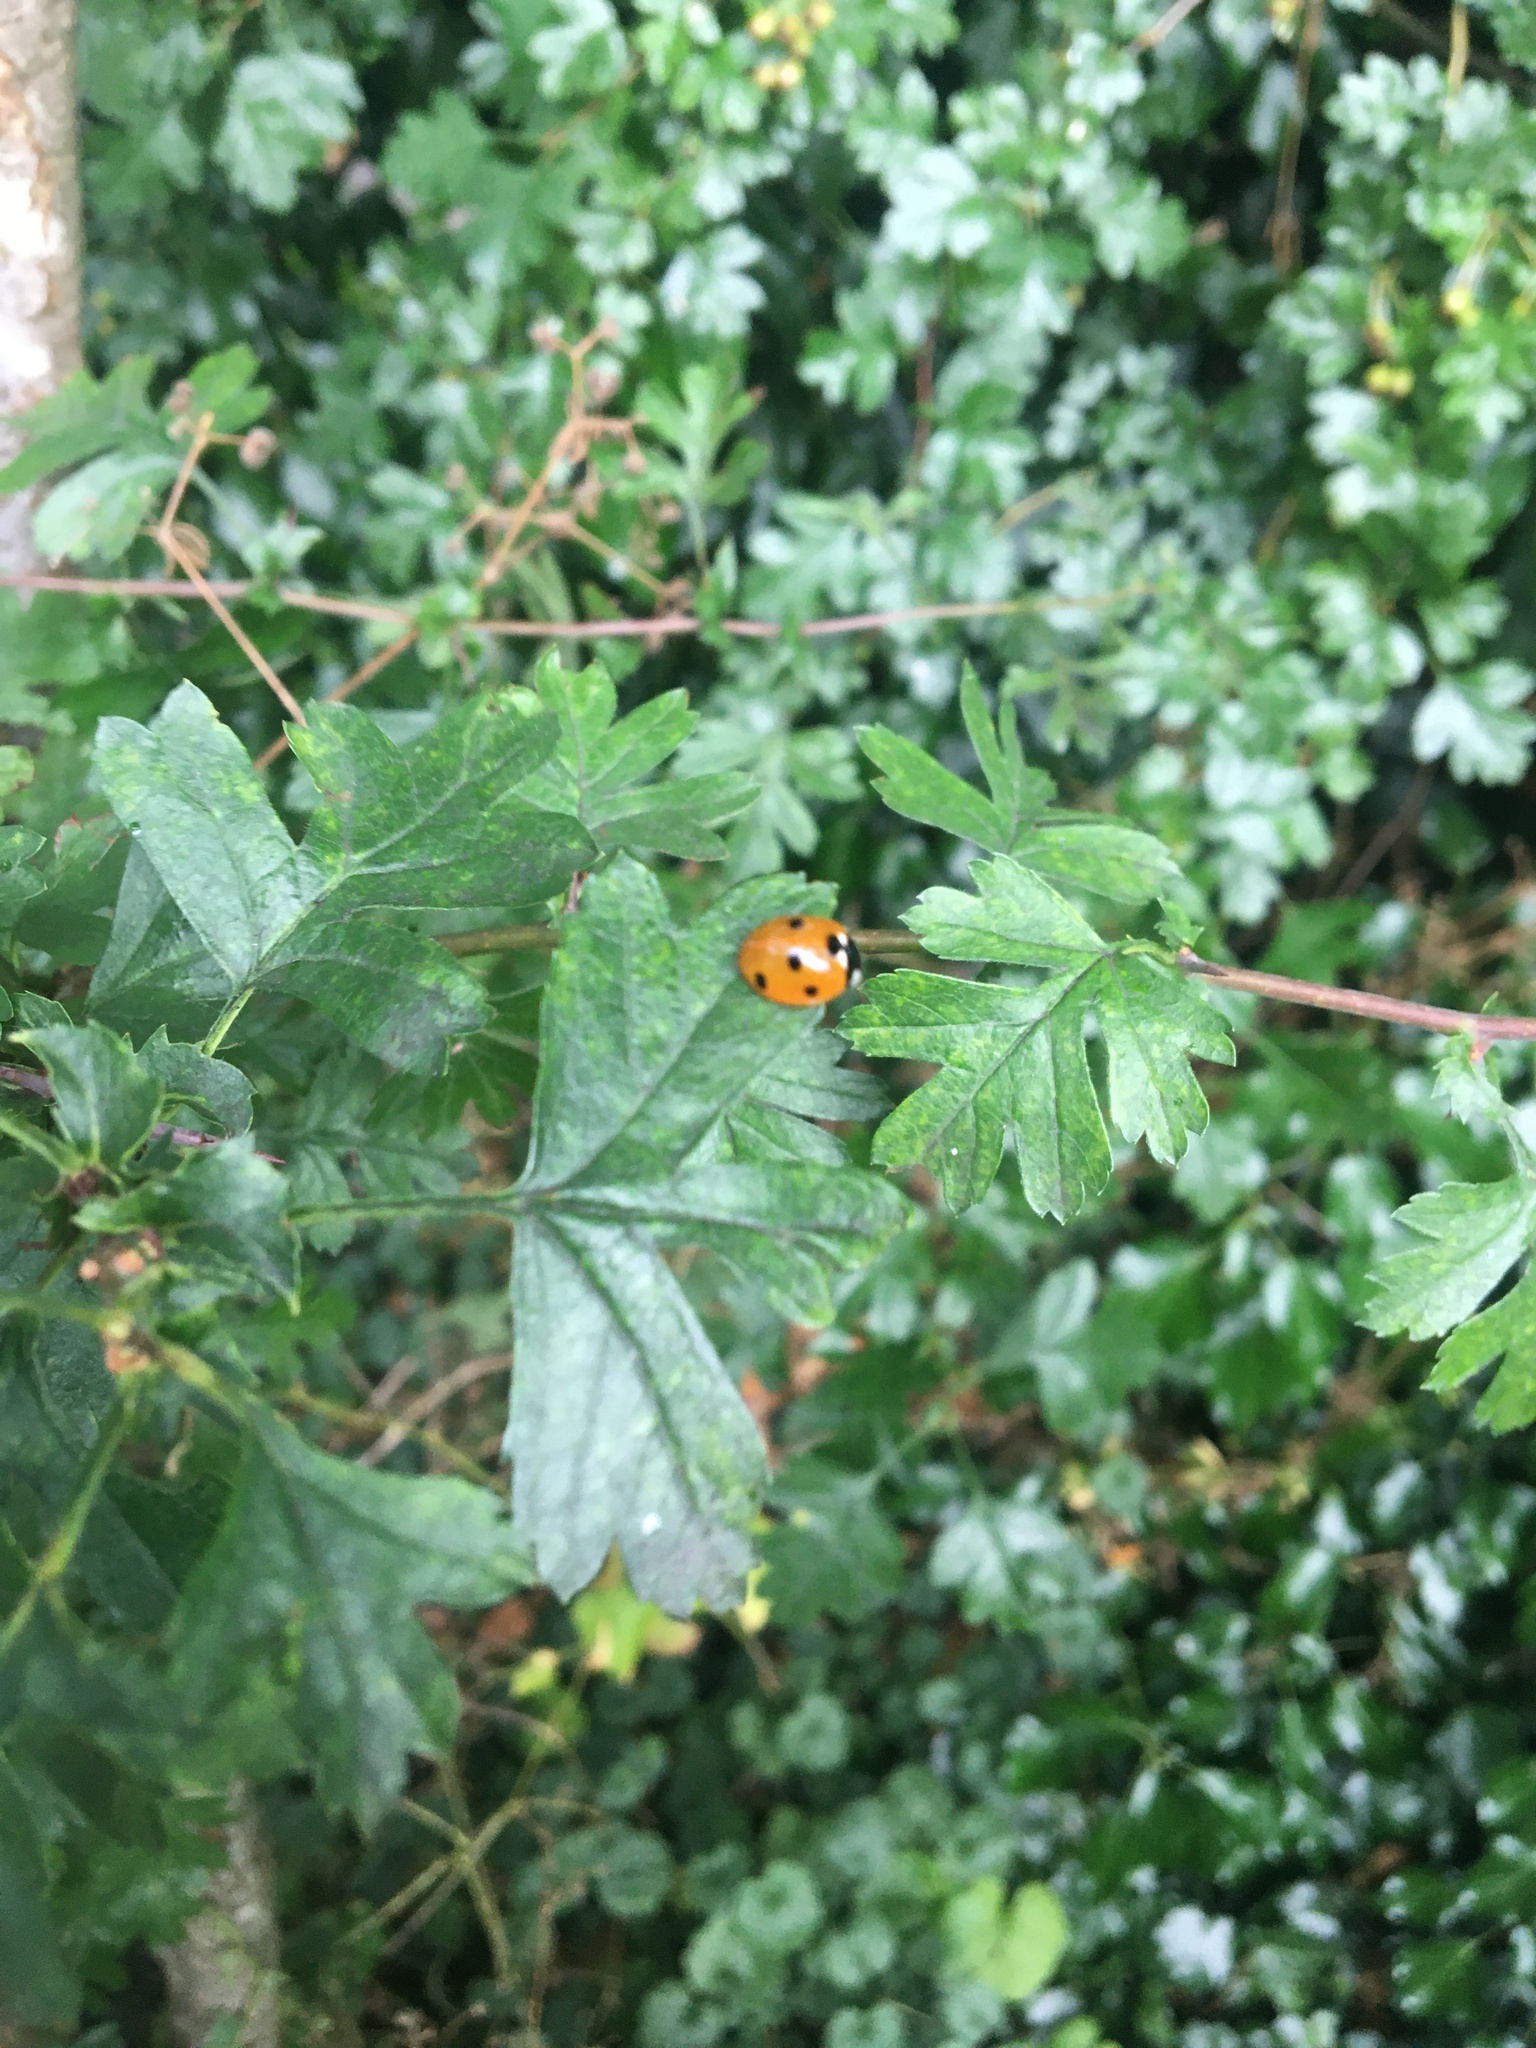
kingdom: Animalia
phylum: Arthropoda
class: Insecta
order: Coleoptera
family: Coccinellidae
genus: Coccinella
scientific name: Coccinella septempunctata
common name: Sevenspotted lady beetle
